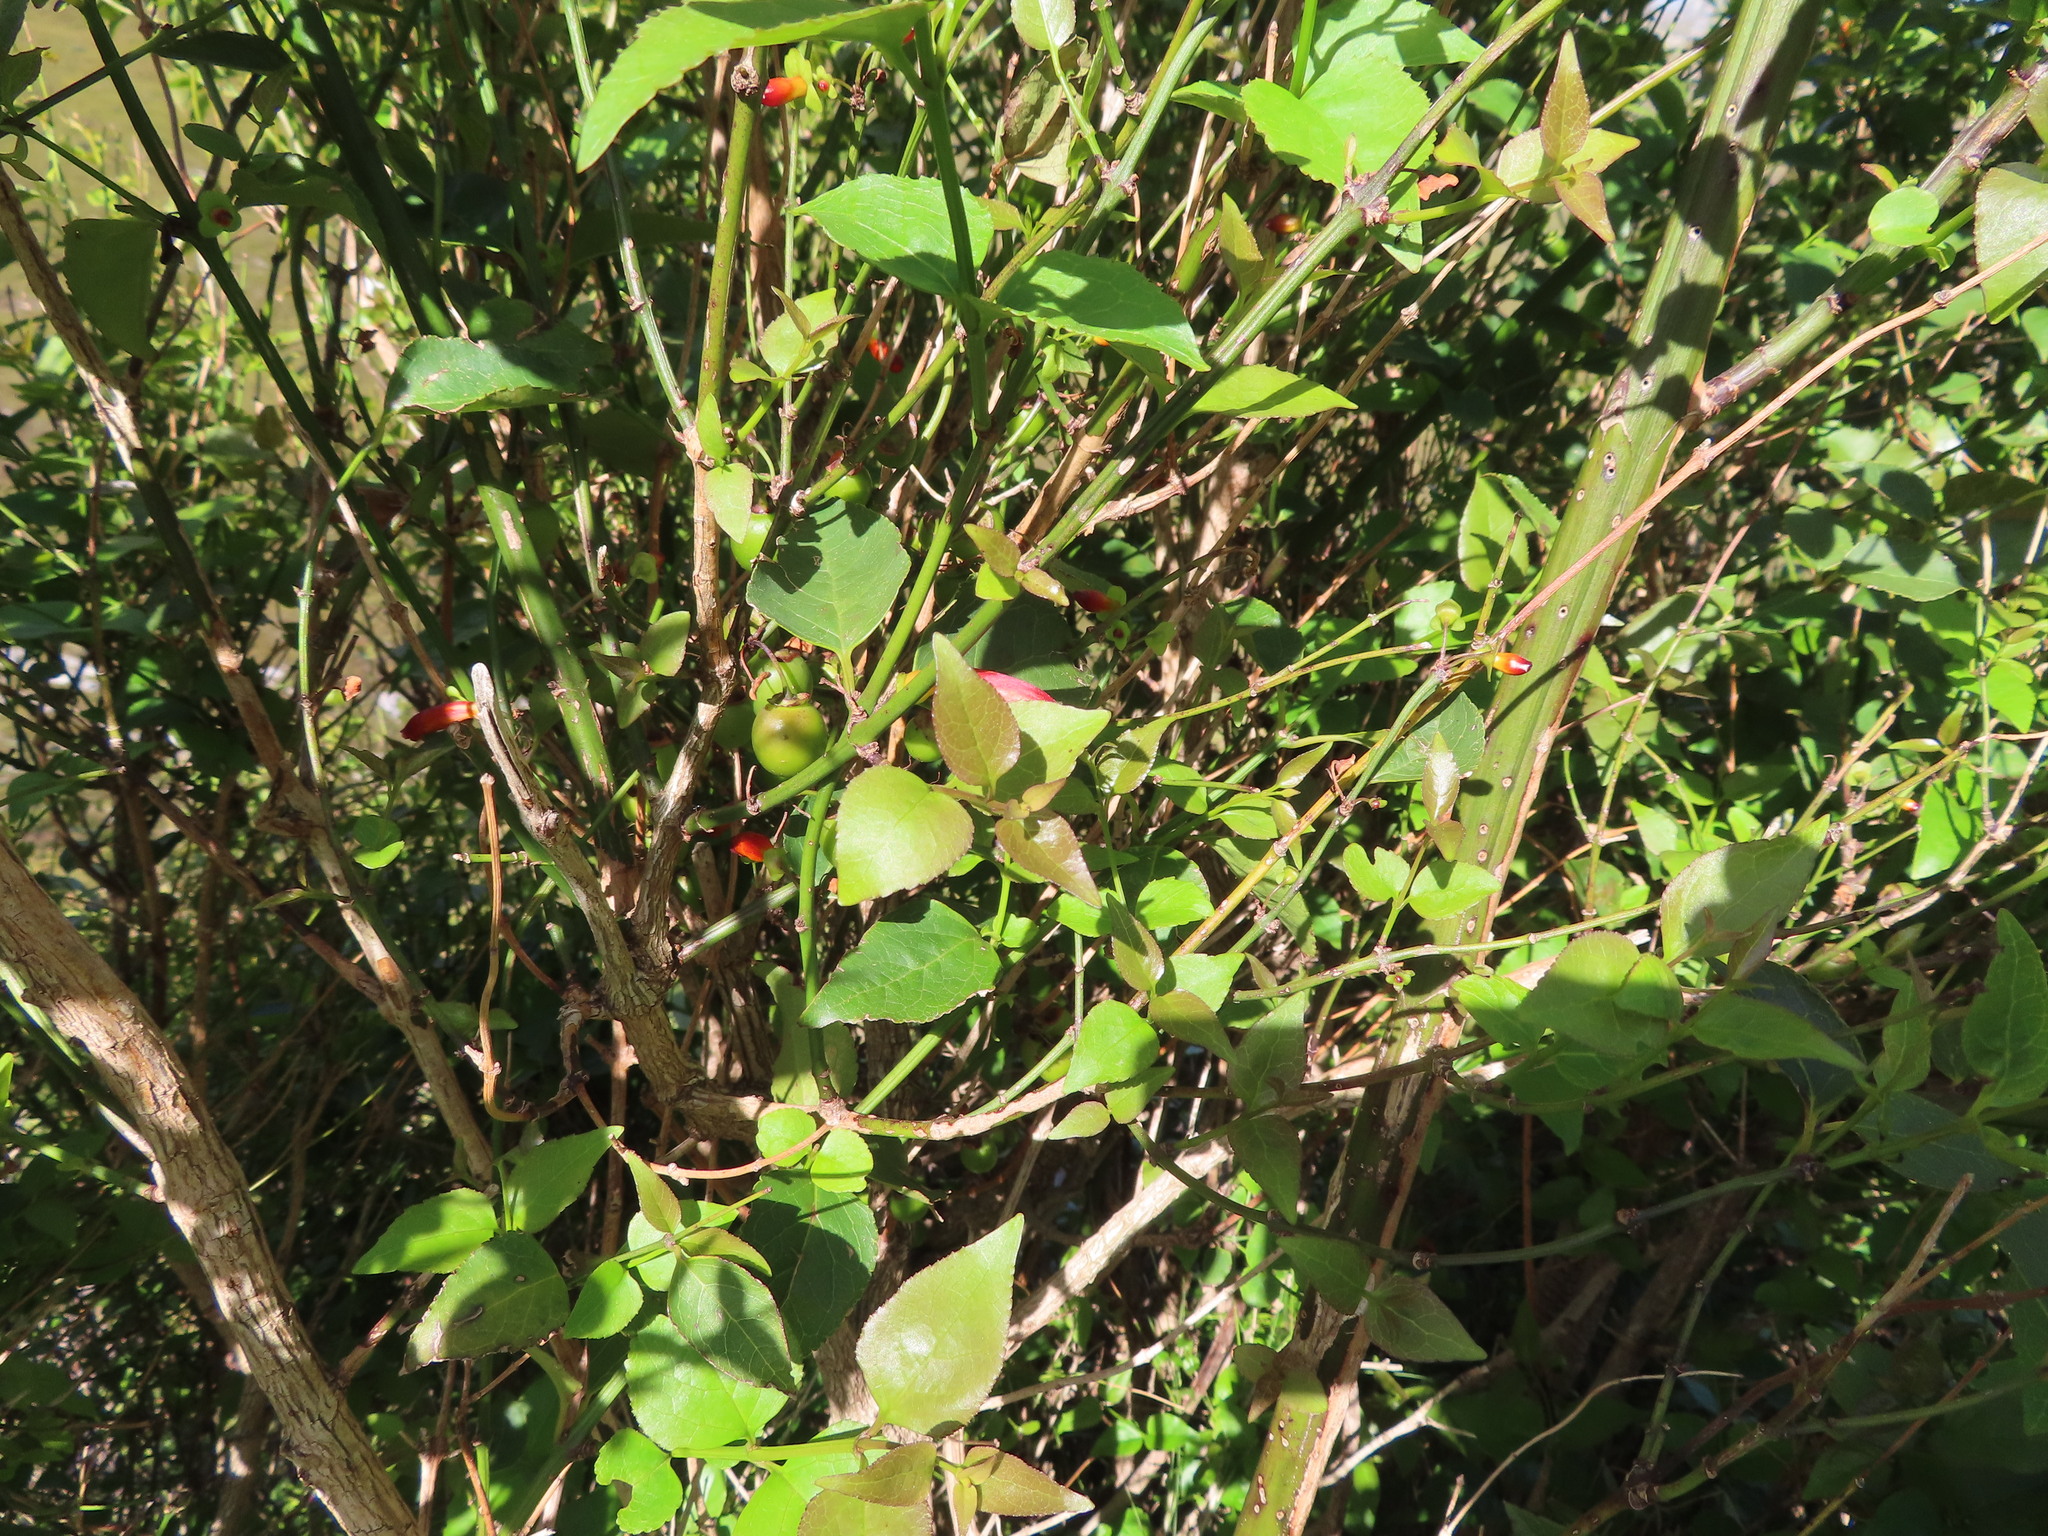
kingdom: Plantae
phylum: Tracheophyta
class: Magnoliopsida
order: Lamiales
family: Stilbaceae
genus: Halleria
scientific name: Halleria lucida
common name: Tree fuschia
